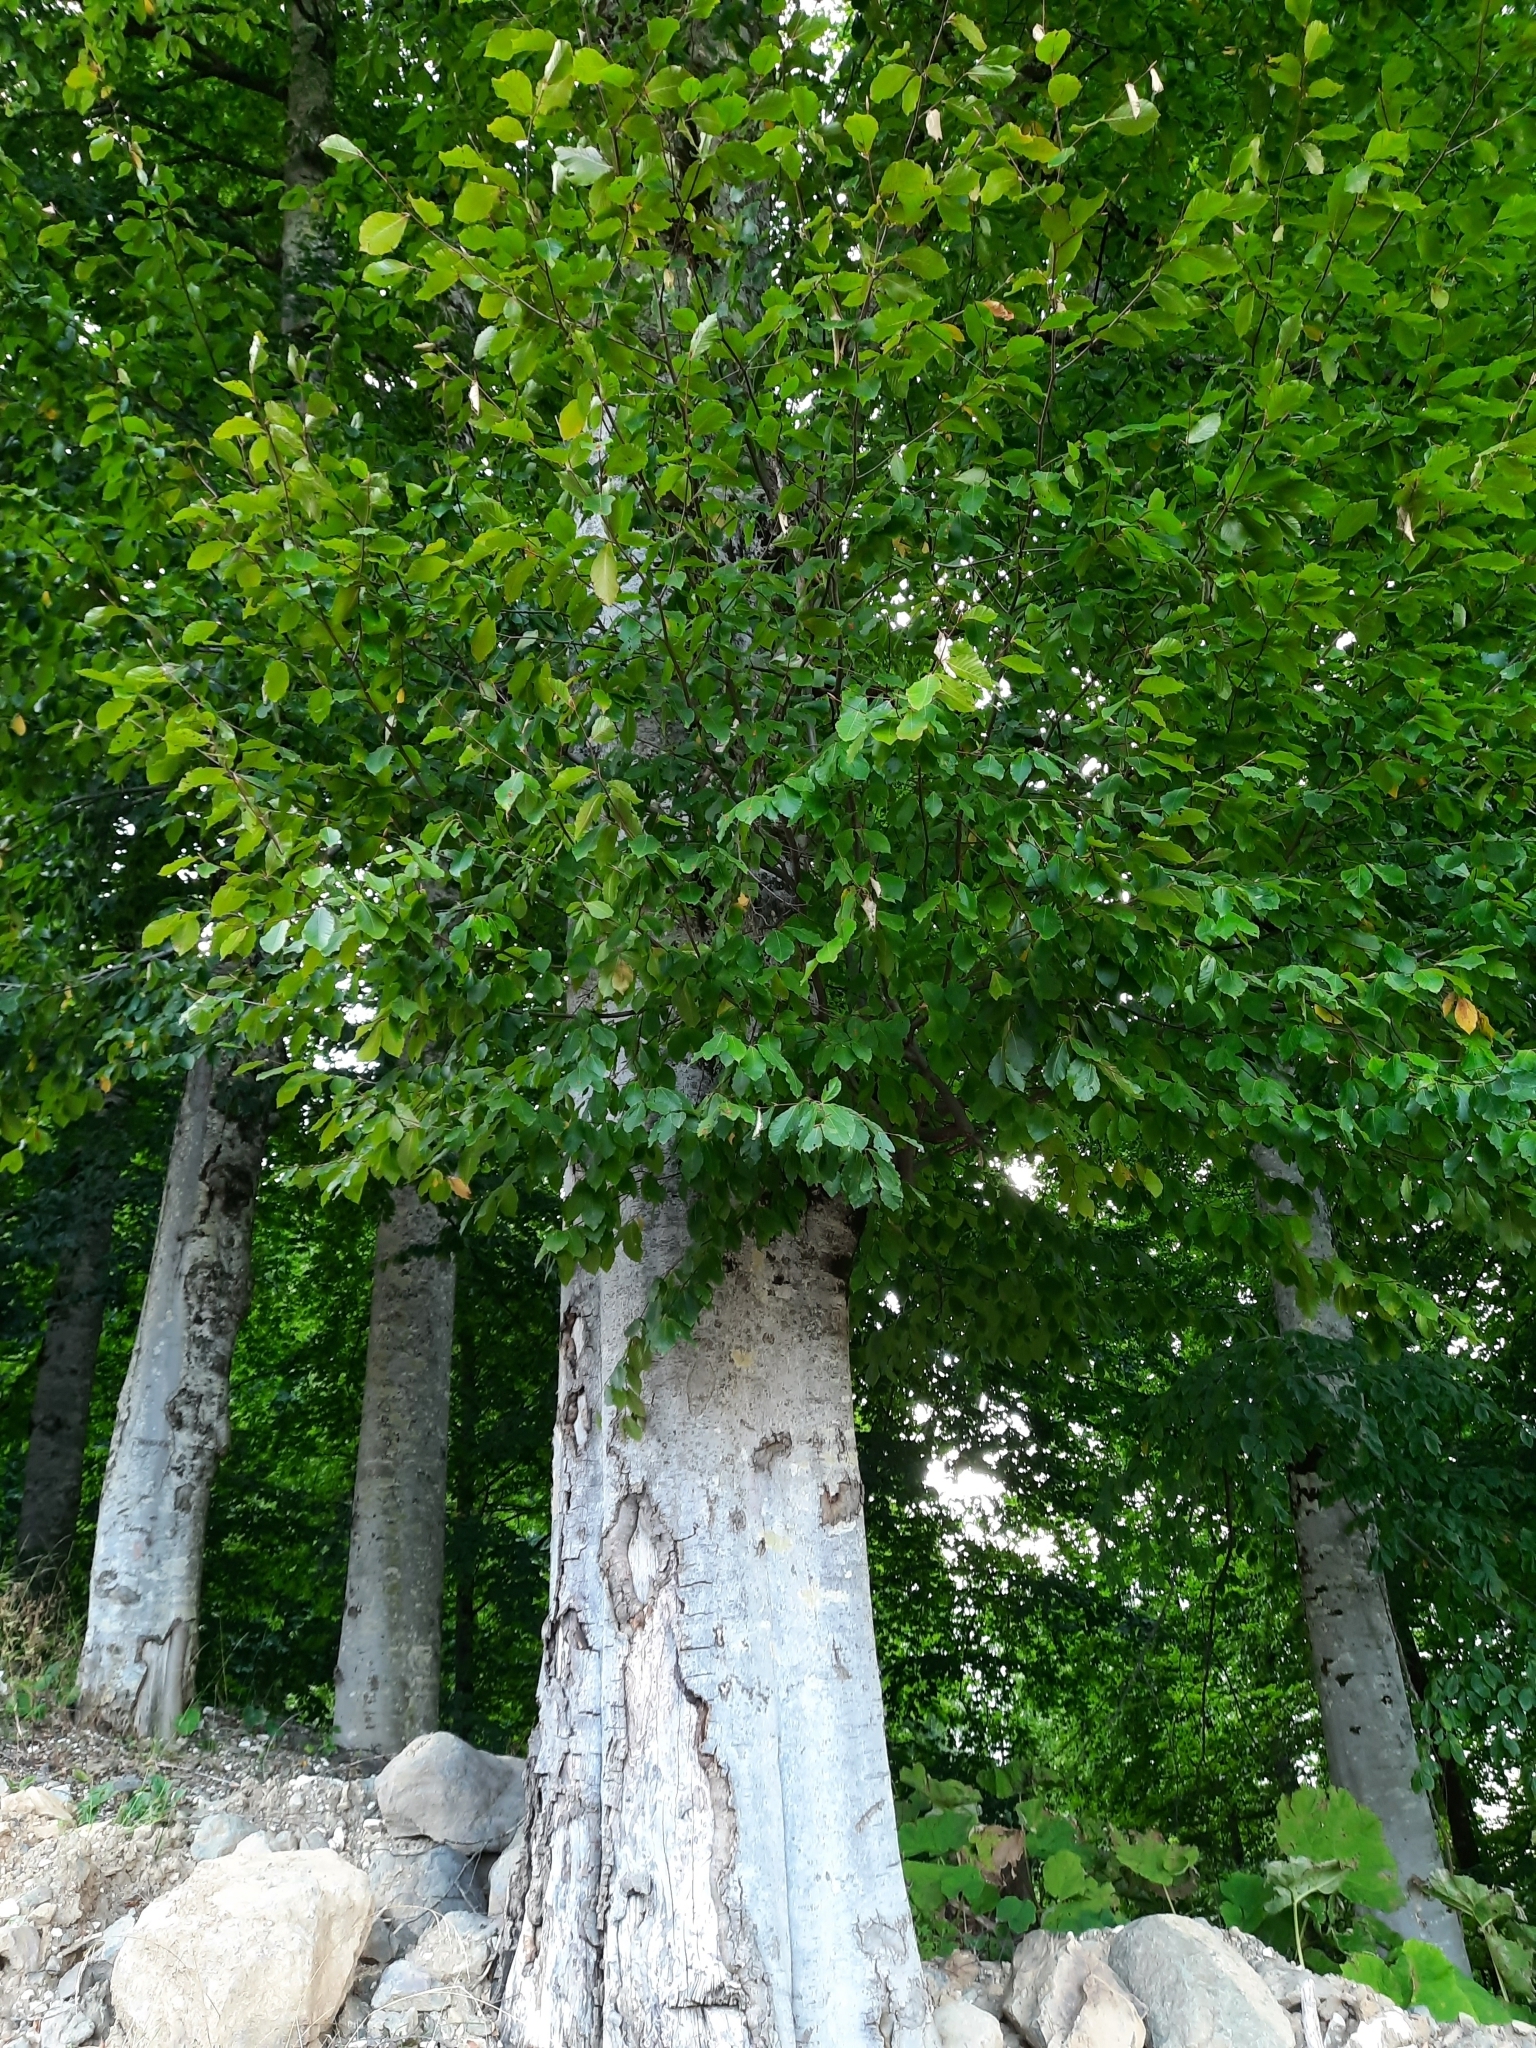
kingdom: Plantae
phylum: Tracheophyta
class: Magnoliopsida
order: Fagales
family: Fagaceae
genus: Fagus
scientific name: Fagus orientalis
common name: Oriental beech
